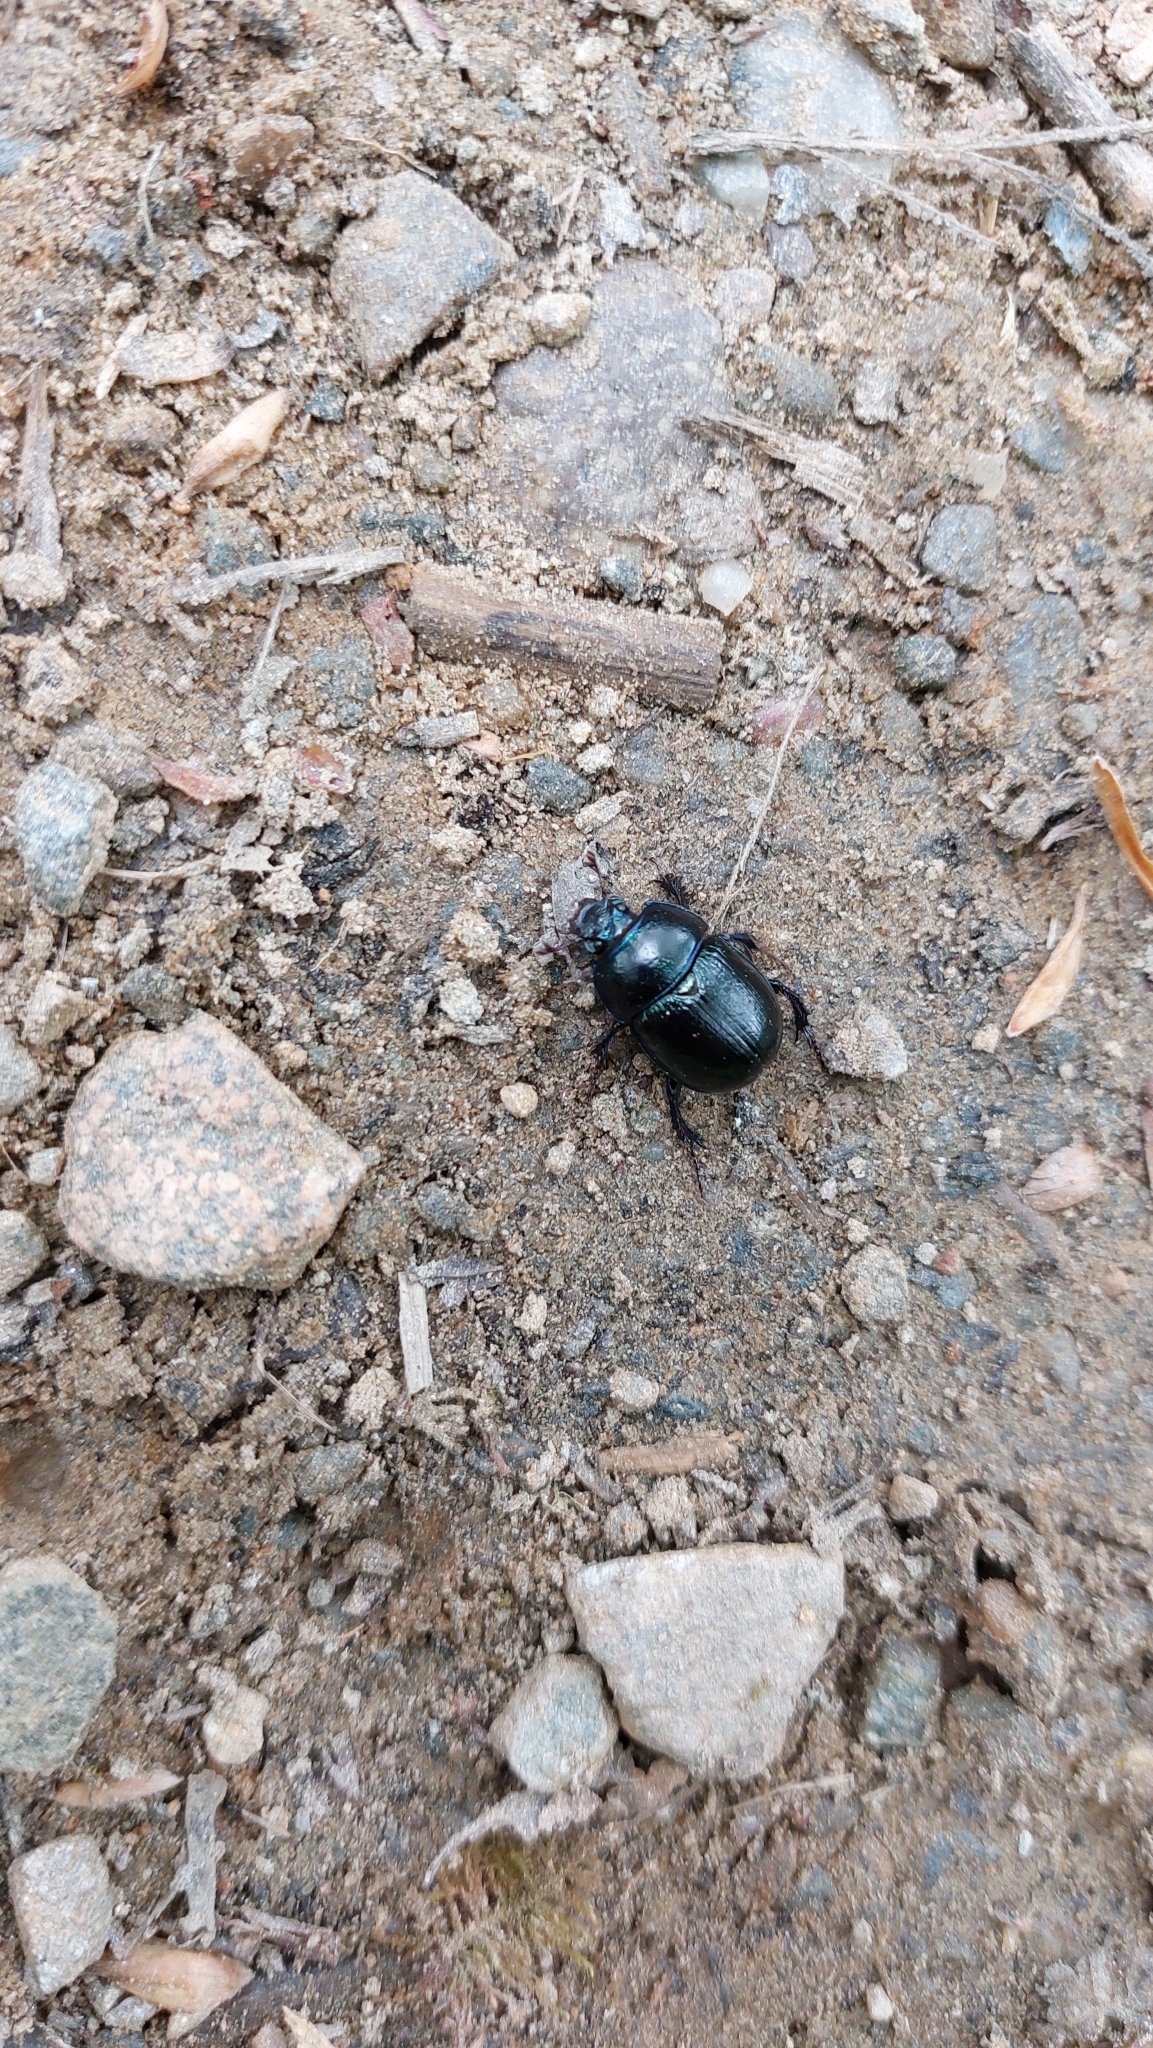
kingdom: Animalia
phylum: Arthropoda
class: Insecta
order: Coleoptera
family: Geotrupidae
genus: Anoplotrupes
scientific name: Anoplotrupes stercorosus
